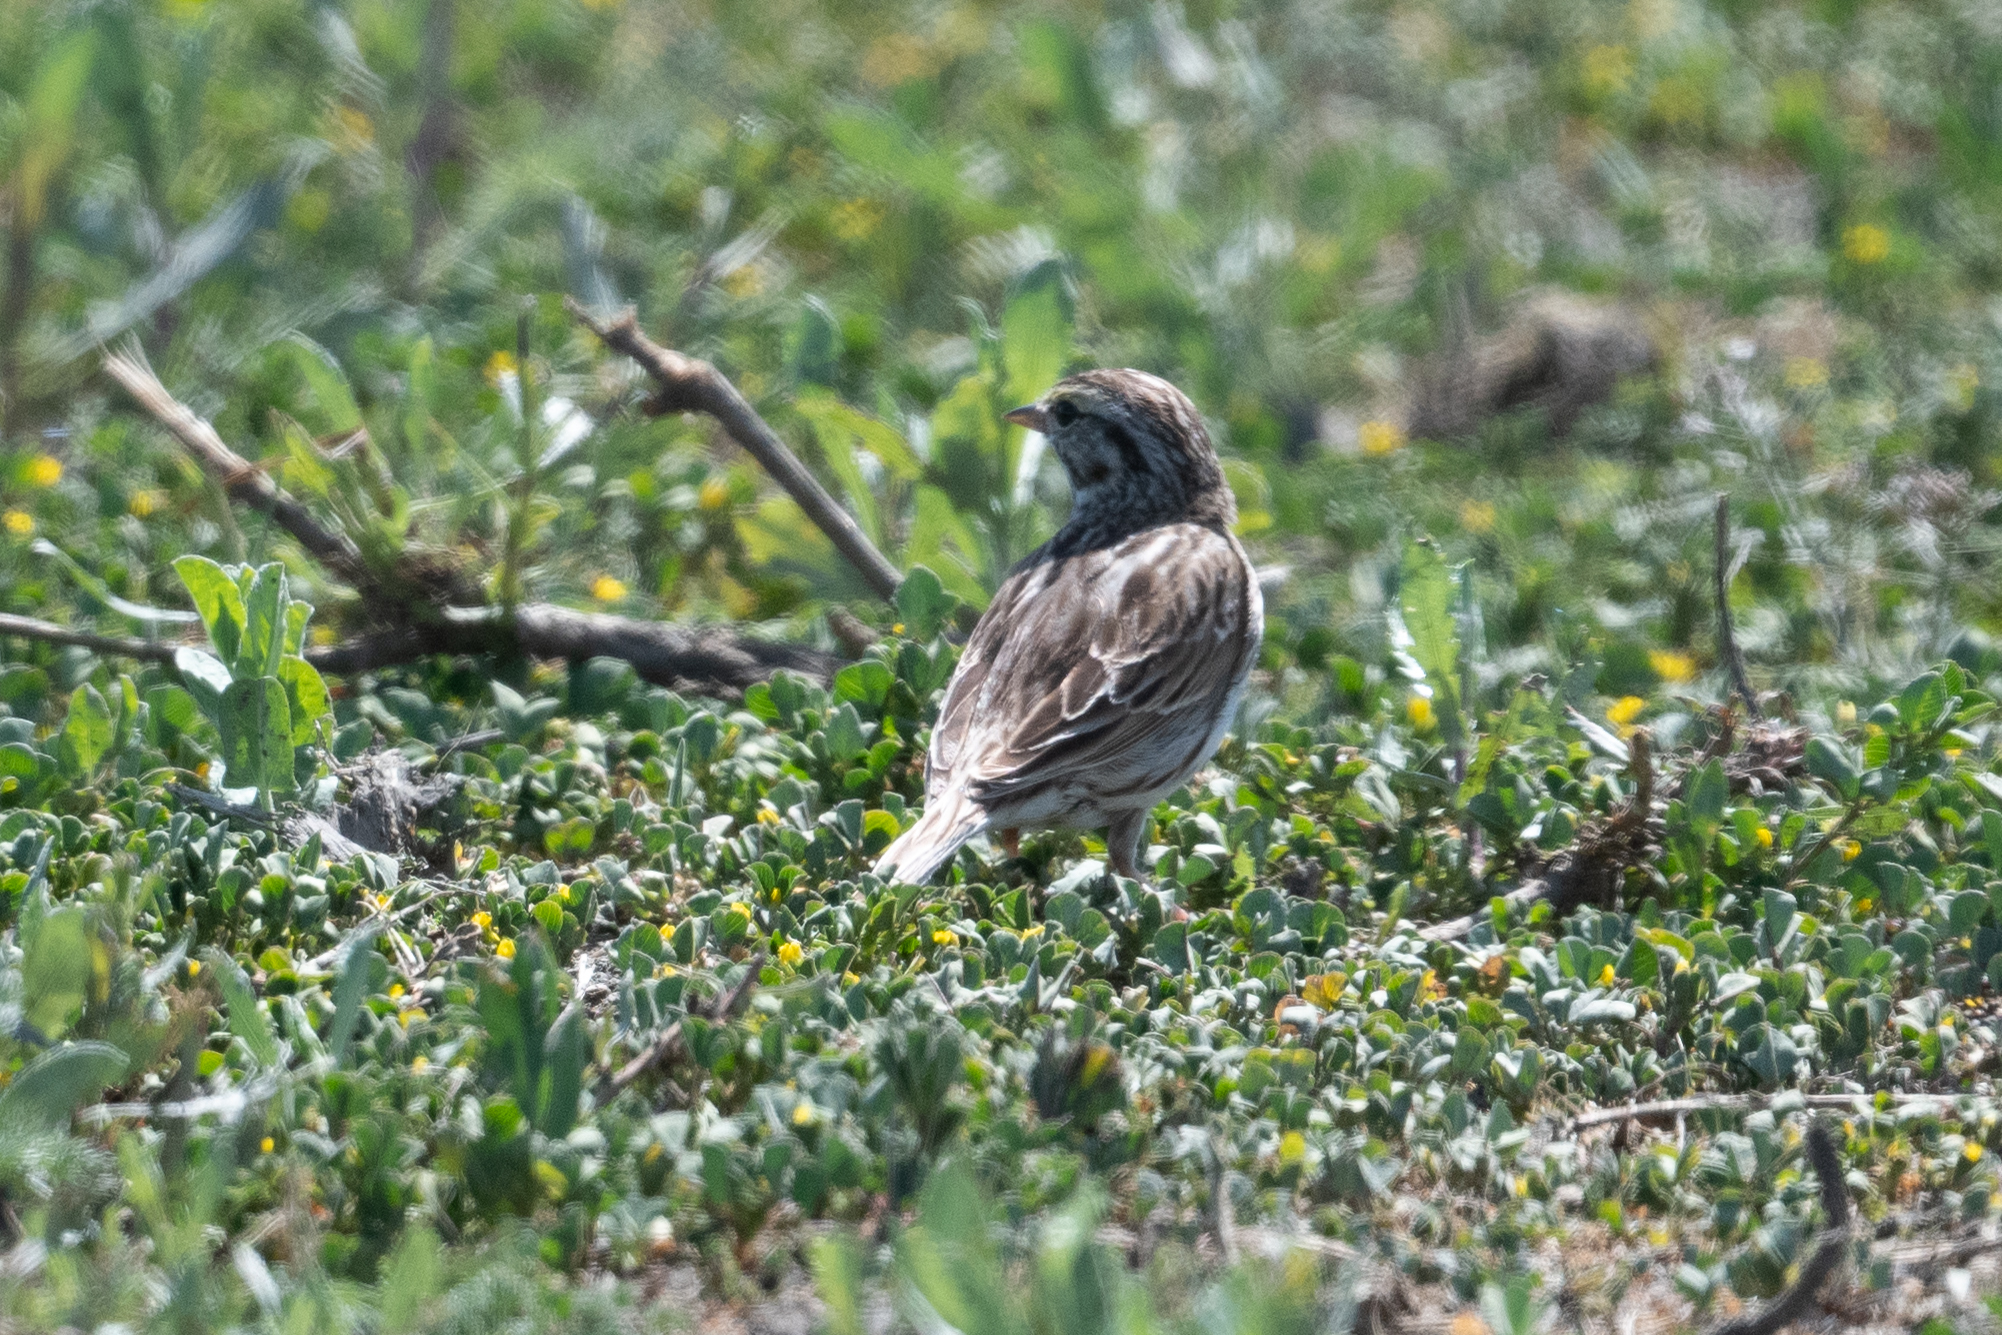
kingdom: Animalia
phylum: Chordata
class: Aves
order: Passeriformes
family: Passerellidae
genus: Passerculus
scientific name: Passerculus sandwichensis
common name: Savannah sparrow
